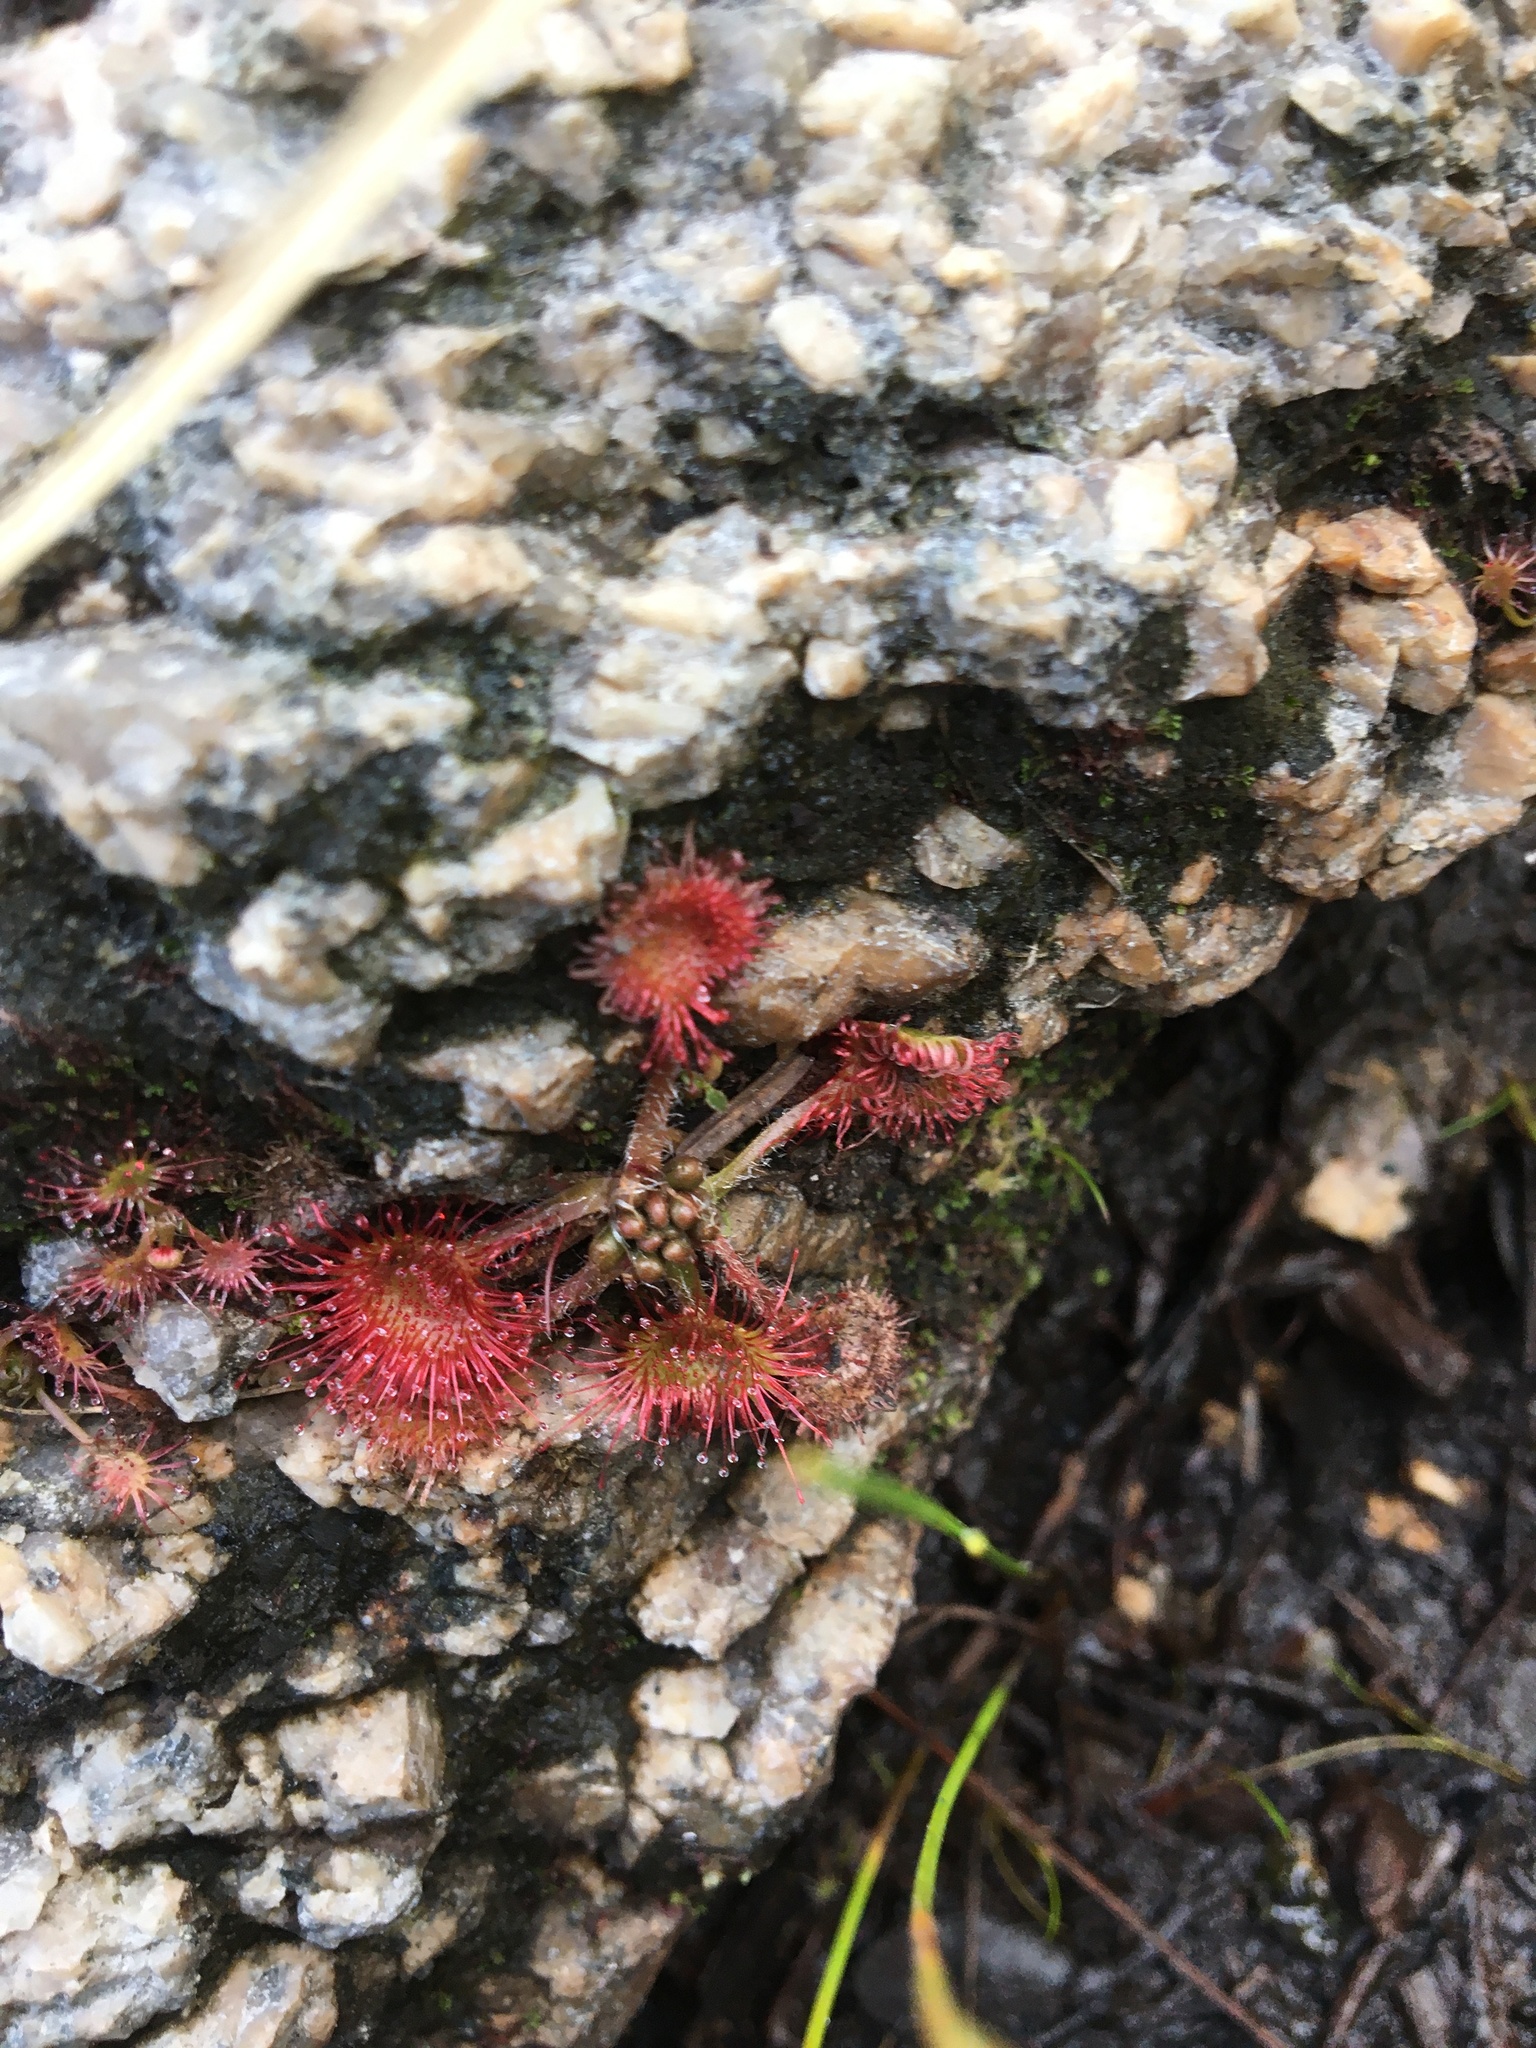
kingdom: Plantae
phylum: Tracheophyta
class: Magnoliopsida
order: Caryophyllales
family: Droseraceae
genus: Drosera
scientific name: Drosera rotundifolia
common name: Round-leaved sundew
